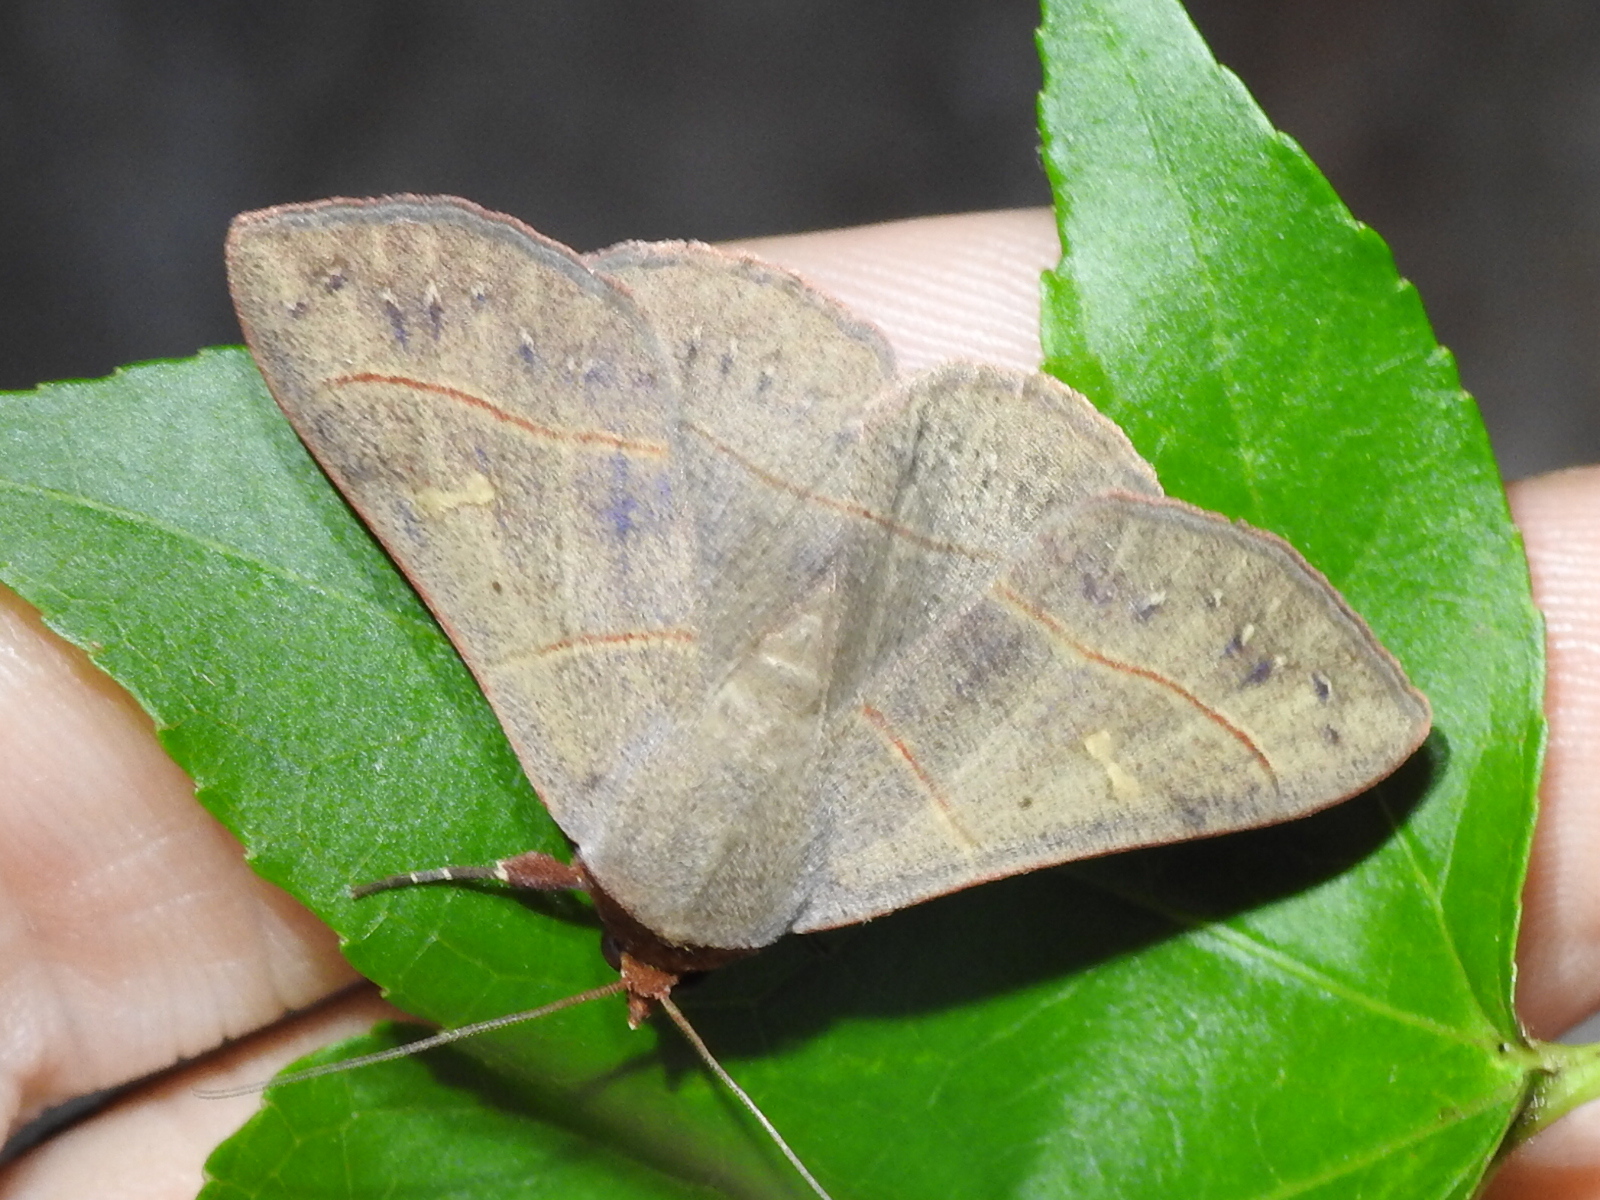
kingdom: Animalia
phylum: Arthropoda
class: Insecta
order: Lepidoptera
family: Erebidae
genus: Panopoda
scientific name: Panopoda rufimargo
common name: Red-lined panopoda moth
